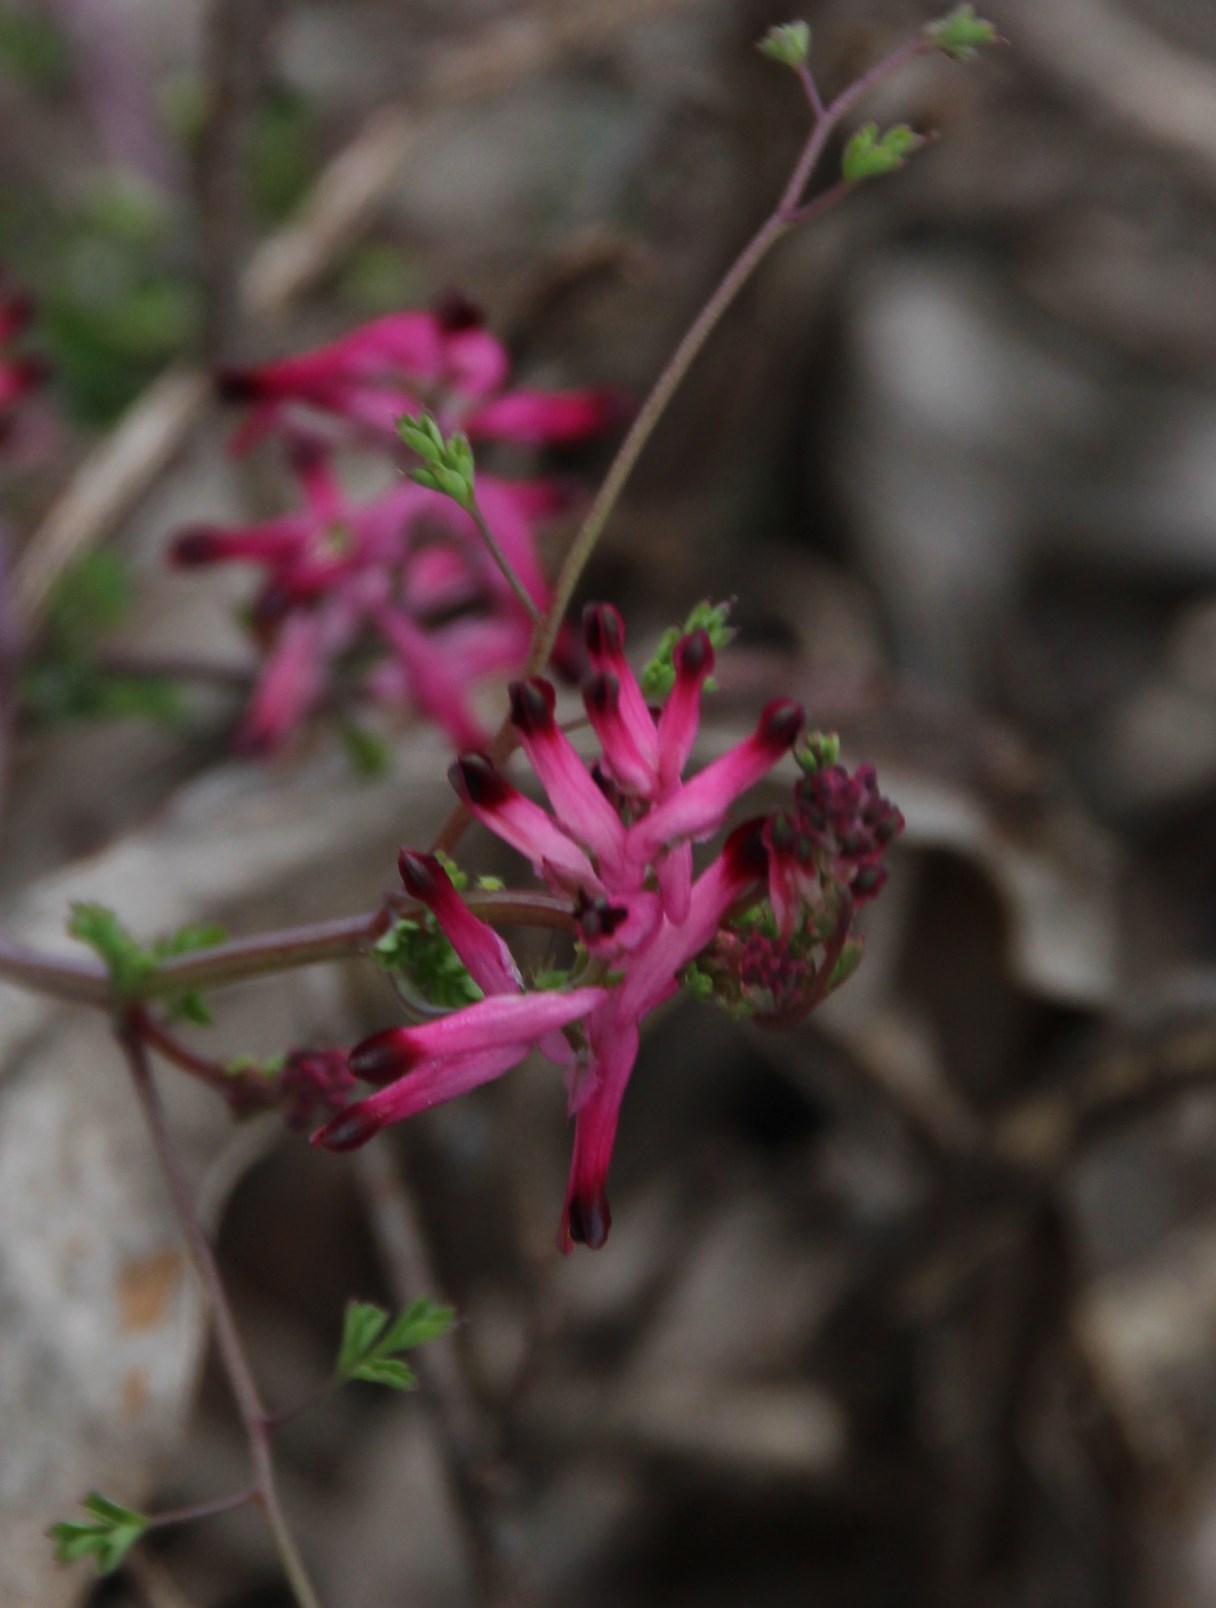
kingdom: Plantae
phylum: Tracheophyta
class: Magnoliopsida
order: Ranunculales
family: Papaveraceae
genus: Fumaria
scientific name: Fumaria muralis
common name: Common ramping-fumitory
